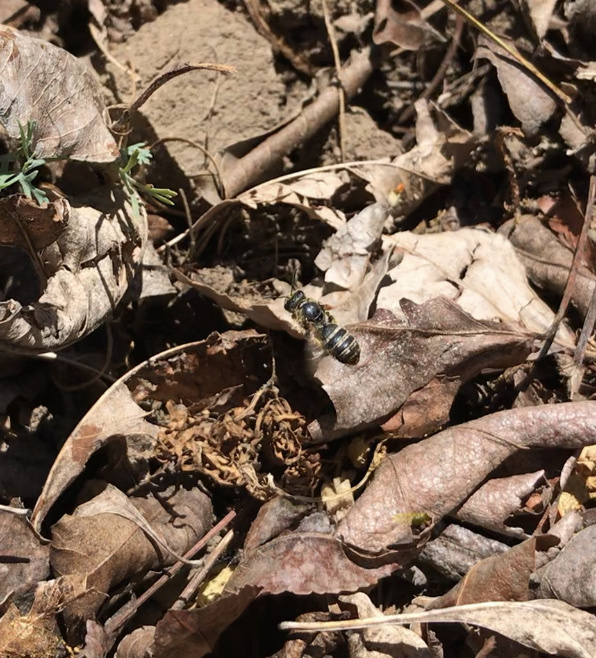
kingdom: Animalia
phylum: Arthropoda
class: Insecta
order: Hymenoptera
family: Halictidae
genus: Halictus
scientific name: Halictus farinosus
